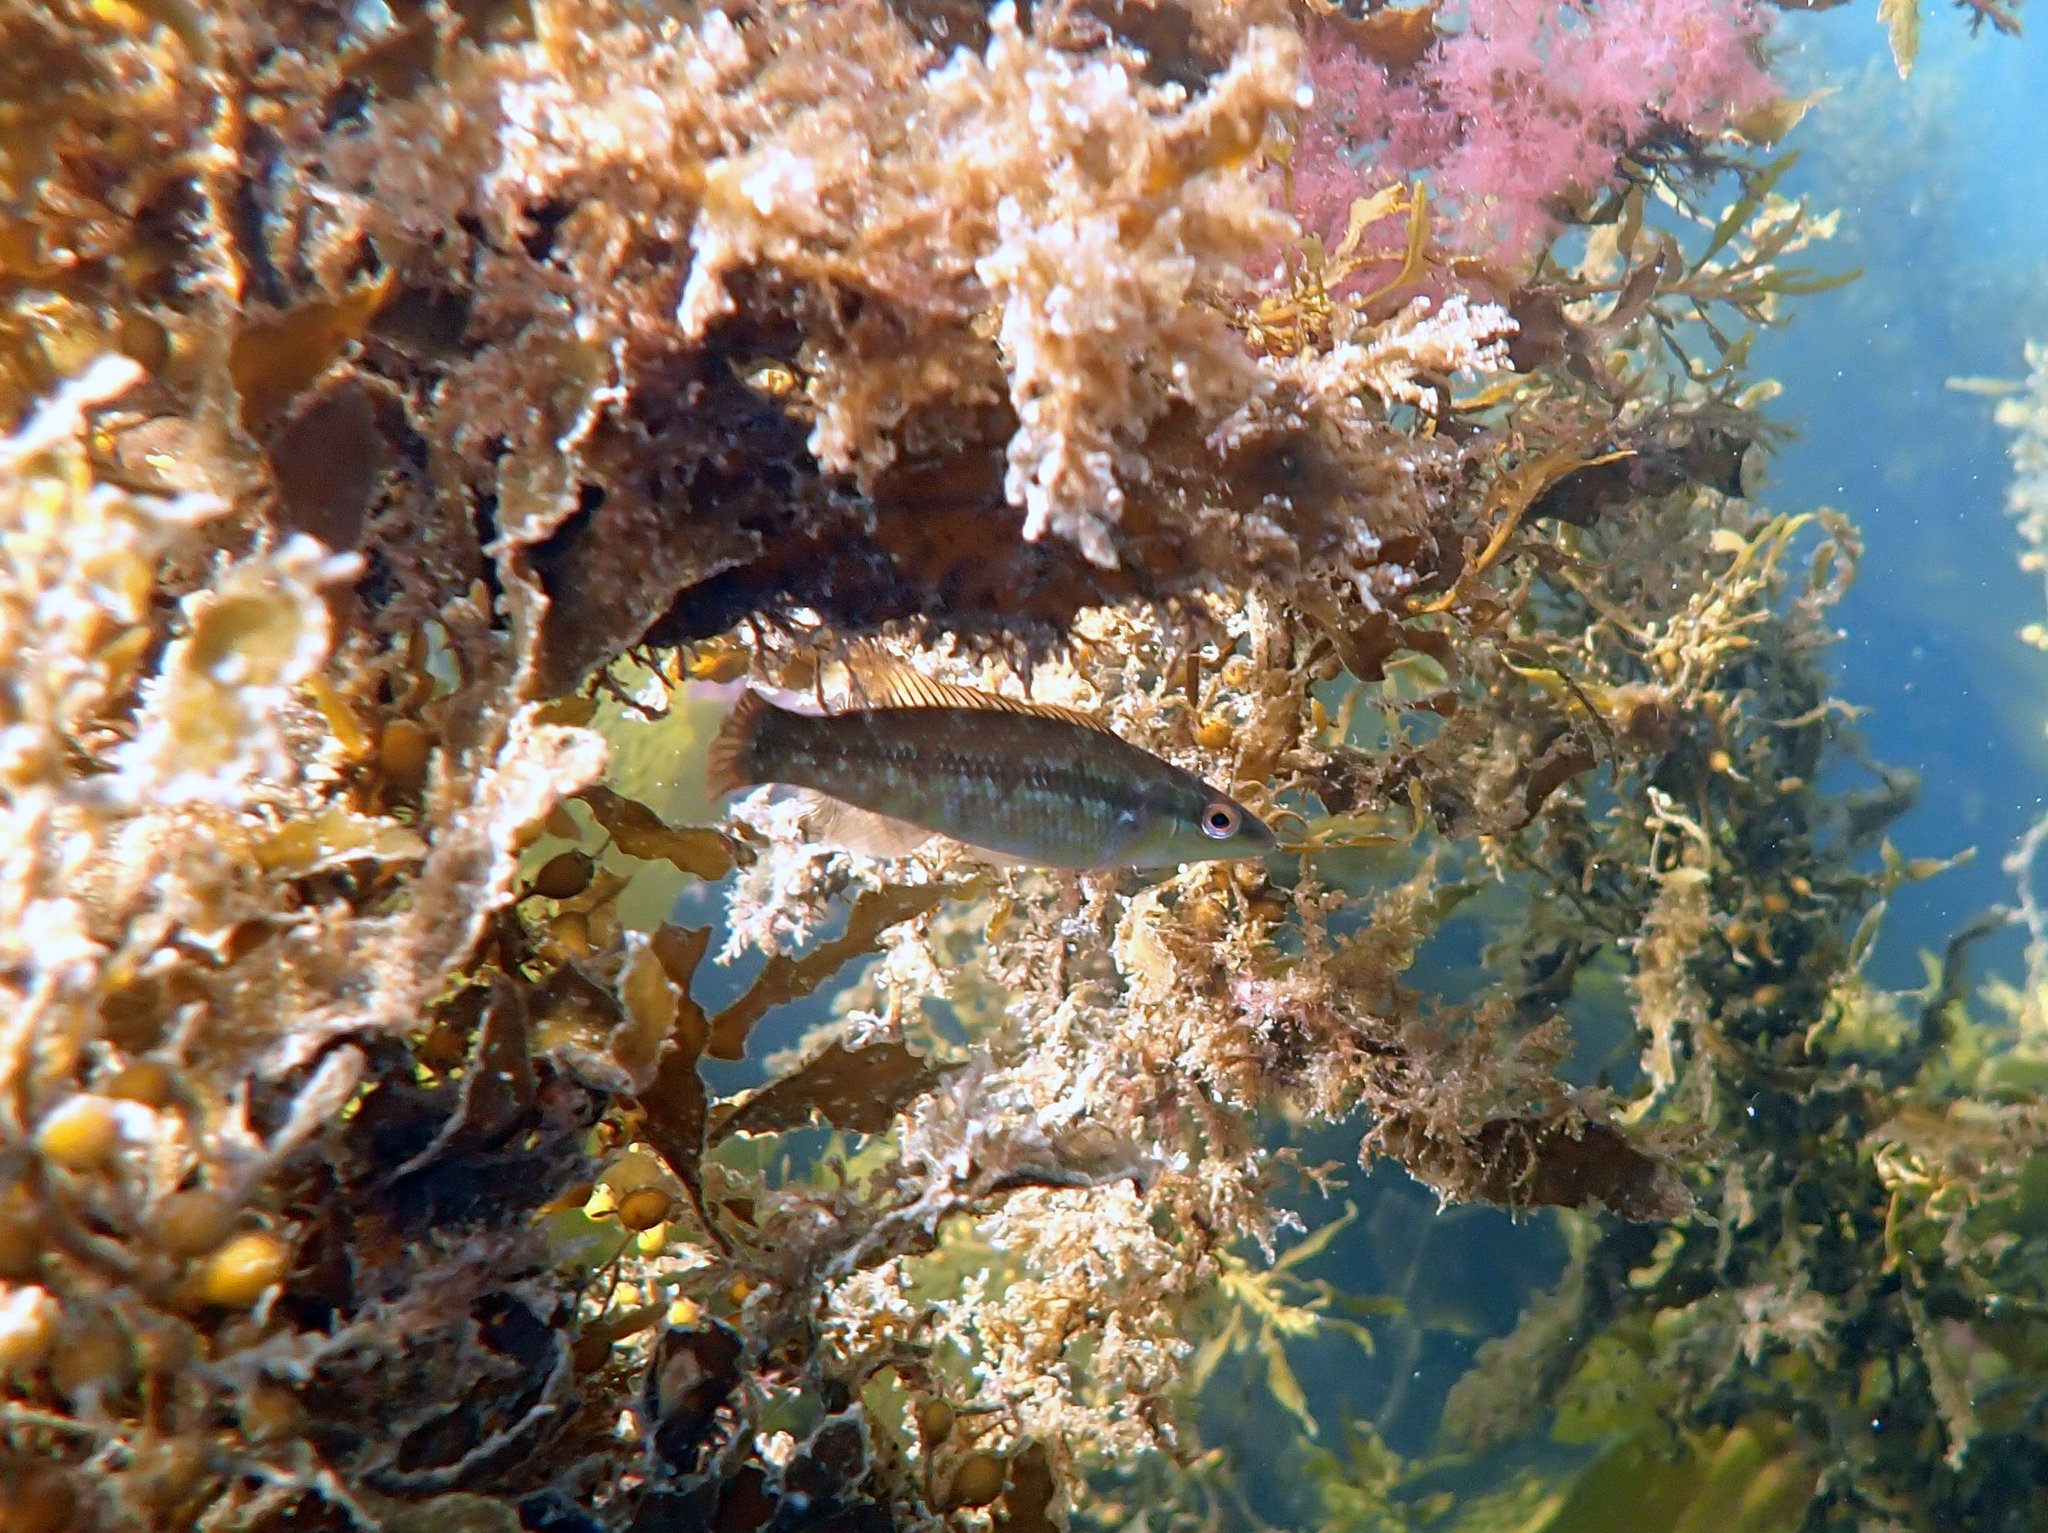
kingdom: Animalia
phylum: Chordata
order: Perciformes
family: Odacidae
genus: Neoodax
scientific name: Neoodax balteatus
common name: Ground mullet
